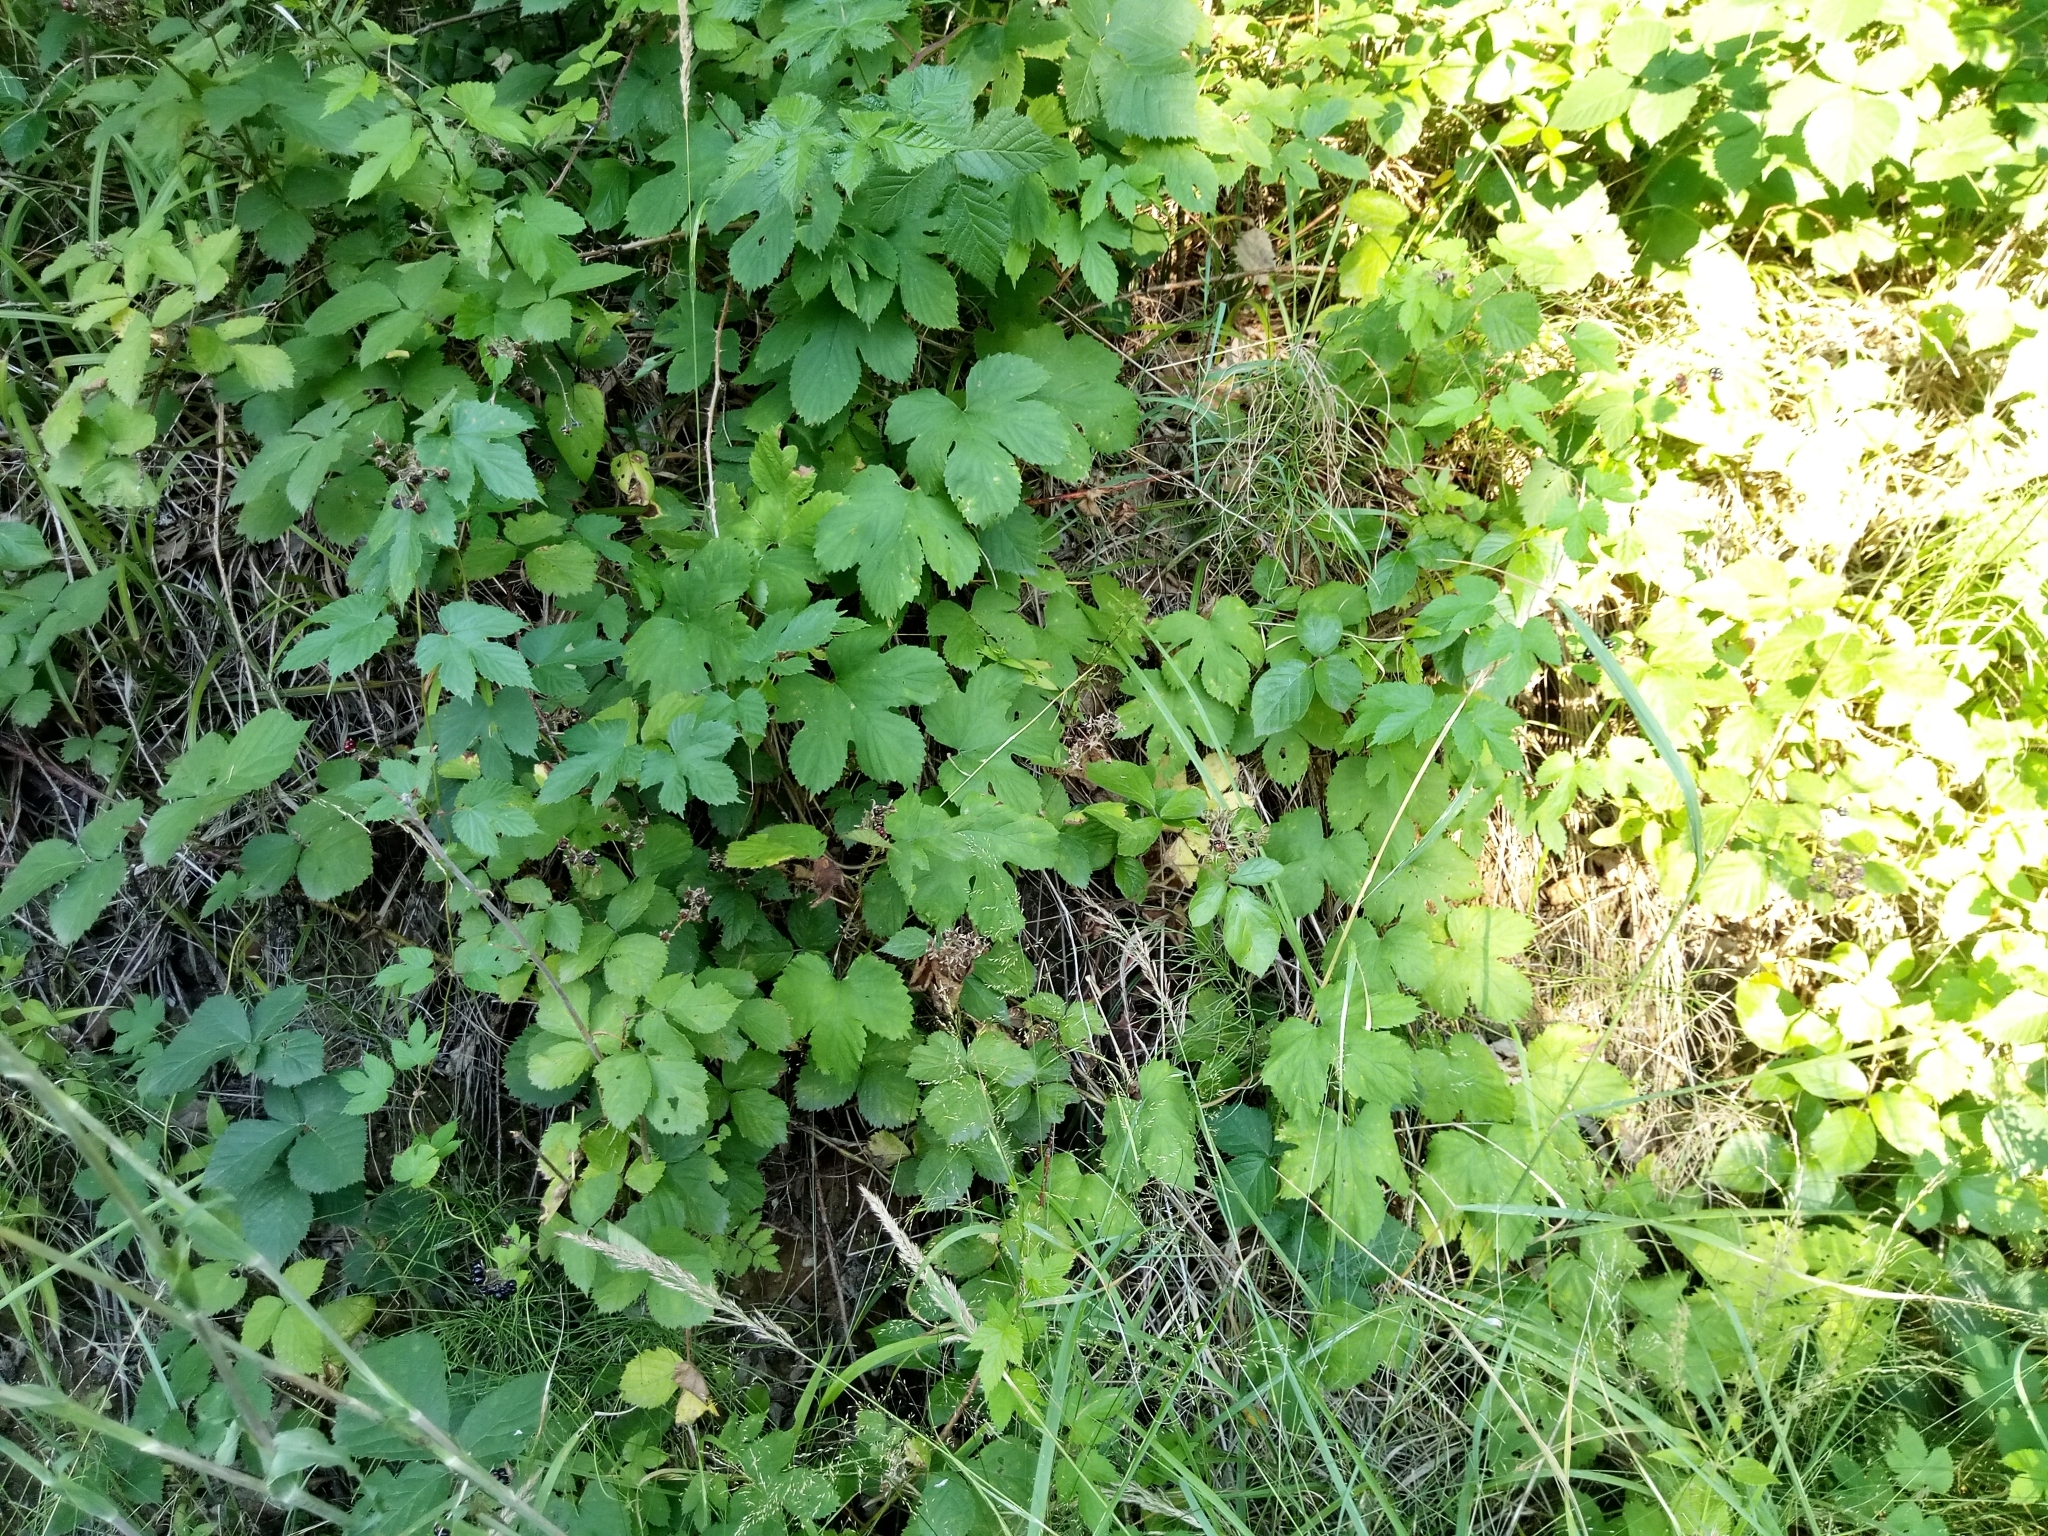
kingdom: Plantae
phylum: Tracheophyta
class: Magnoliopsida
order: Rosales
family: Cannabaceae
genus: Humulus
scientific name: Humulus lupulus
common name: Hop
